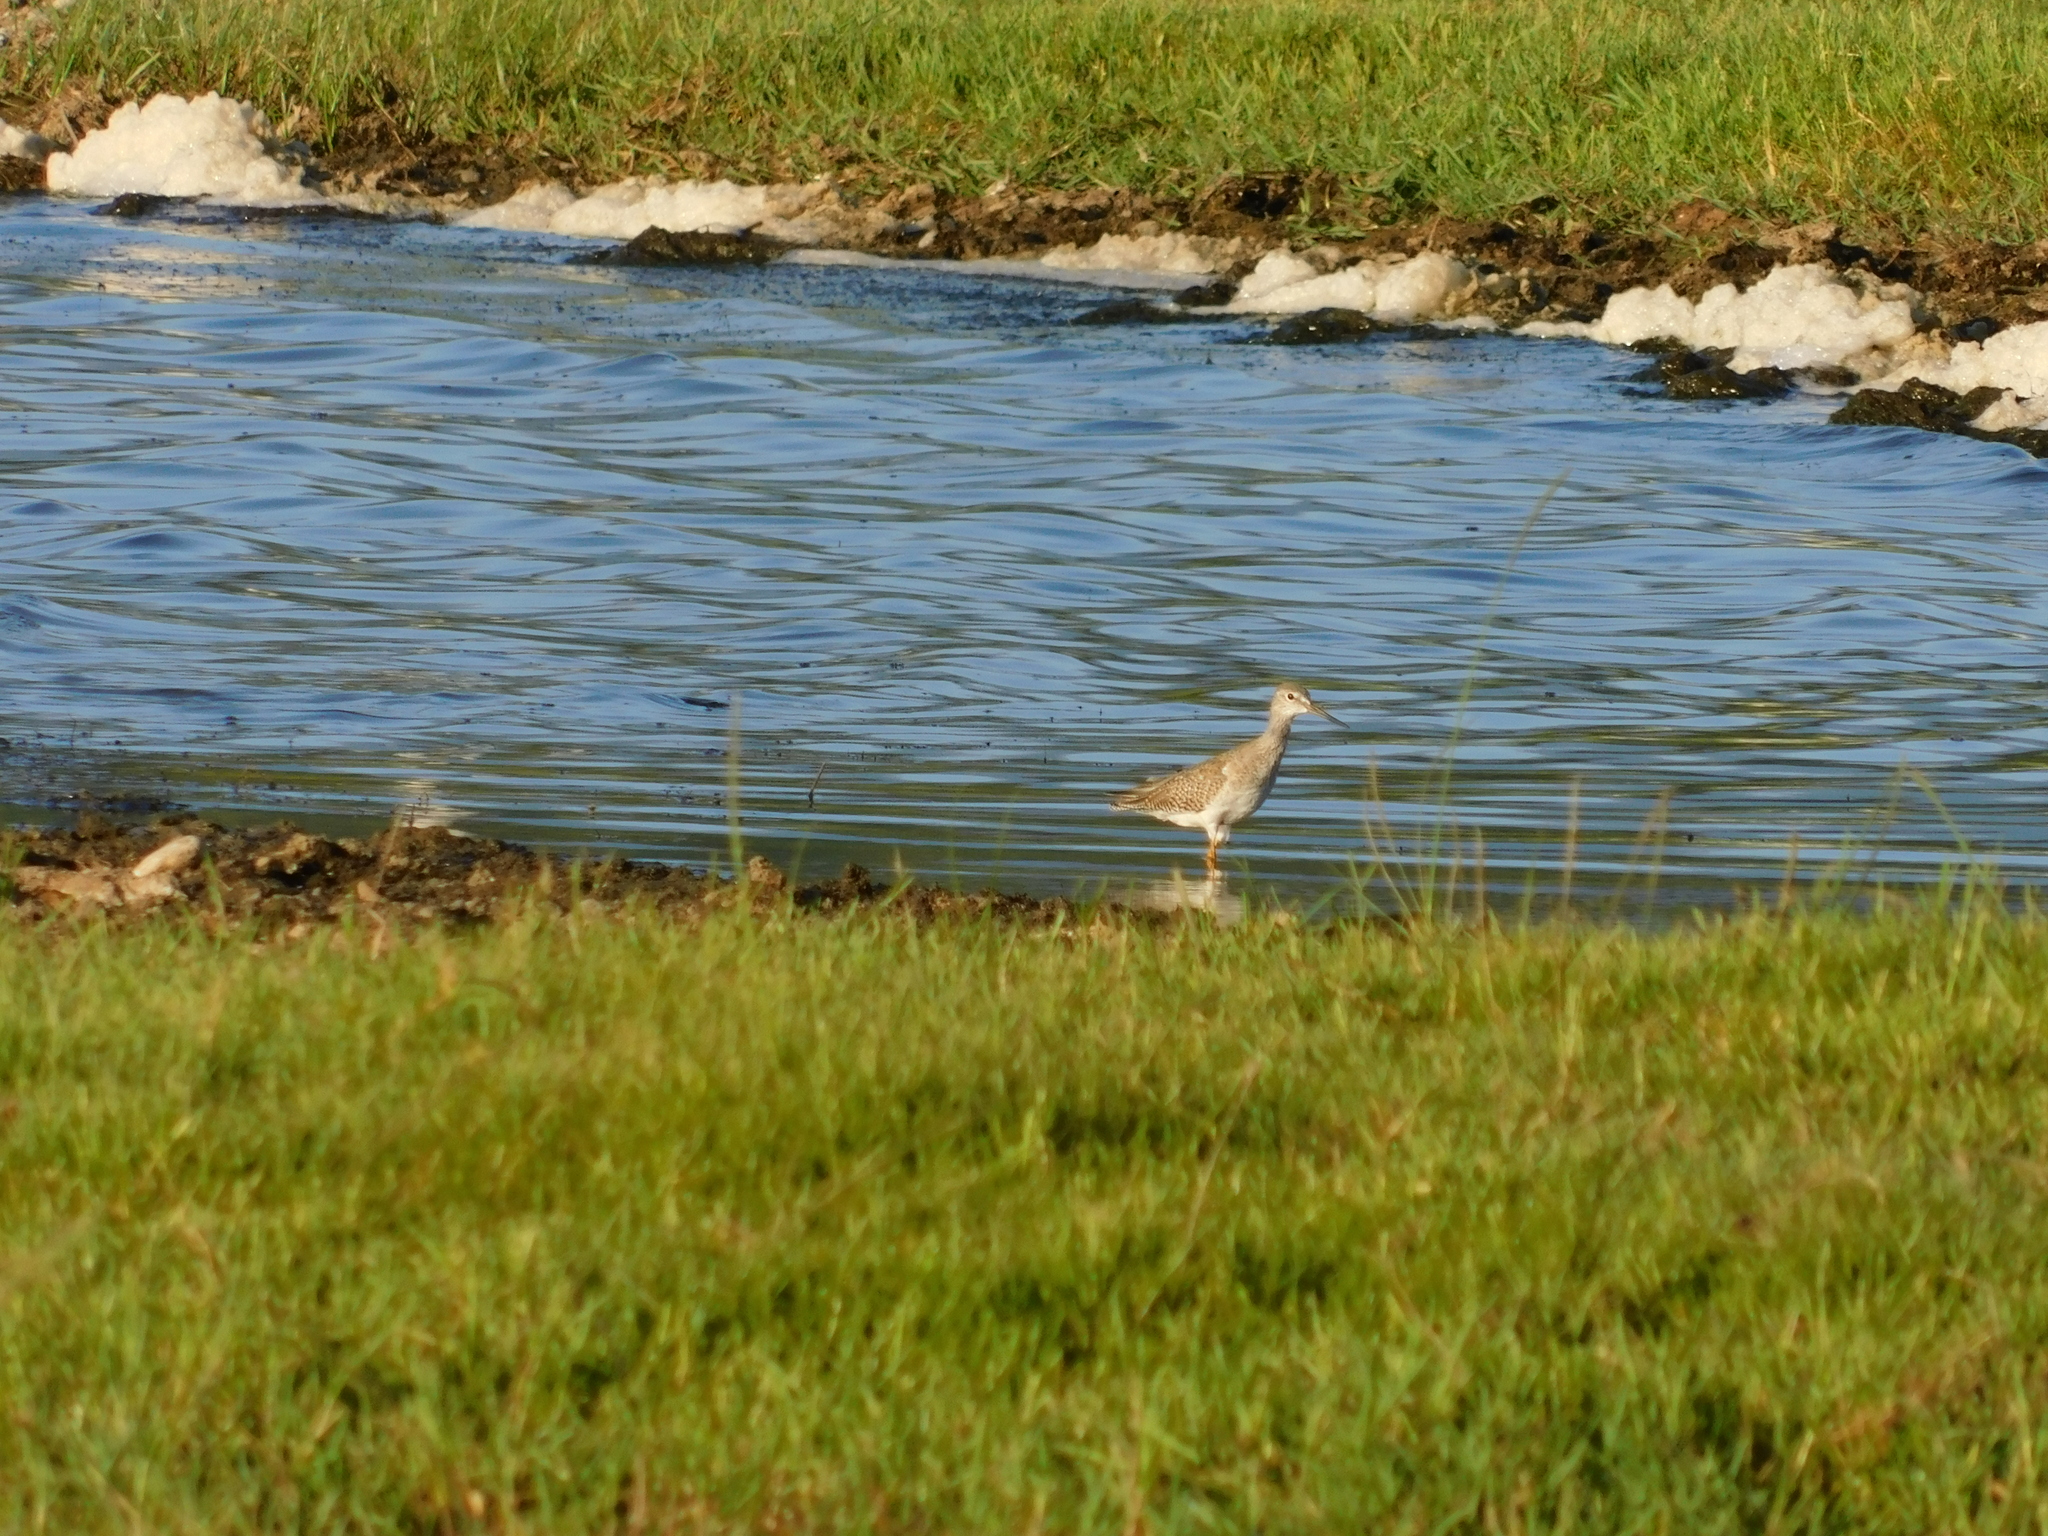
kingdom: Animalia
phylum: Chordata
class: Aves
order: Charadriiformes
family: Scolopacidae
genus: Tringa
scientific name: Tringa totanus
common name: Common redshank
